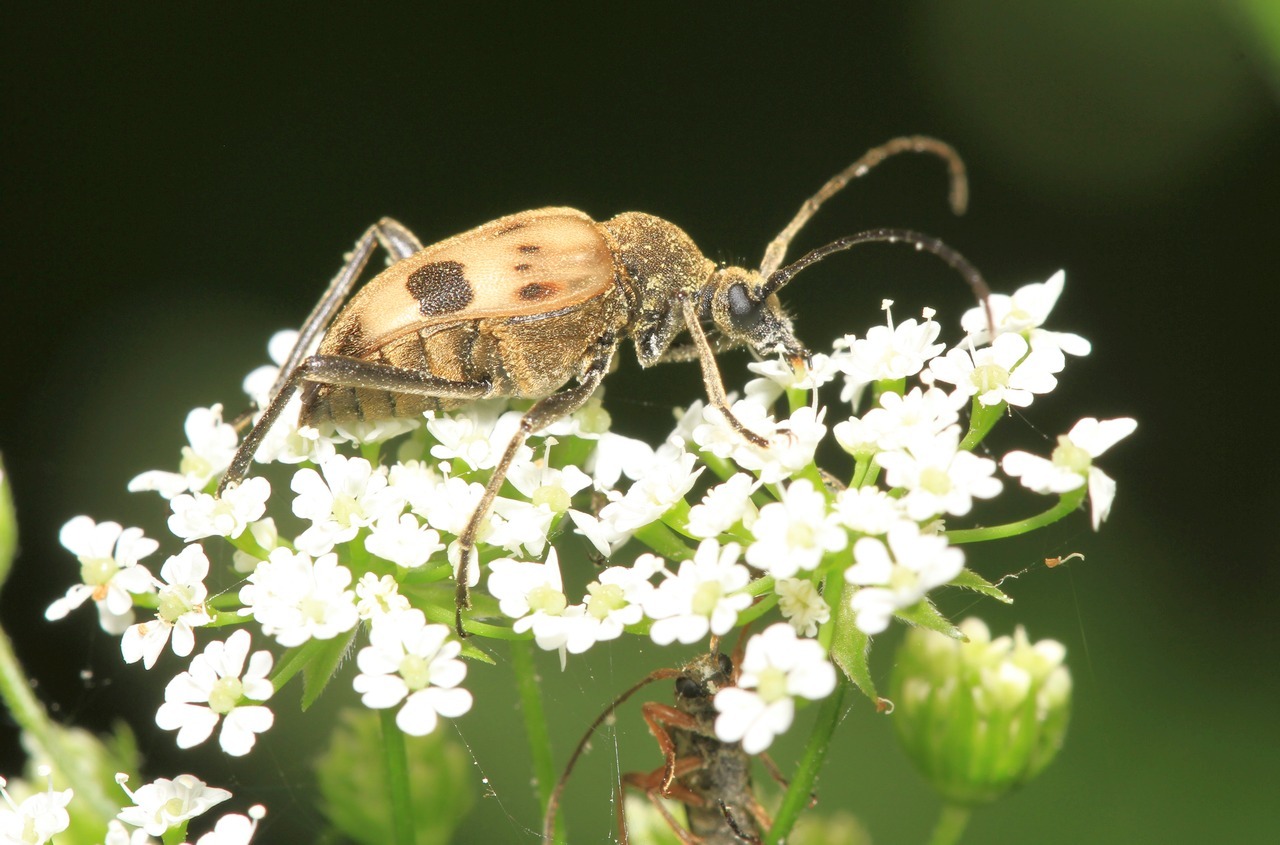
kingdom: Animalia
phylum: Arthropoda
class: Insecta
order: Coleoptera
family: Cerambycidae
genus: Pachytodes
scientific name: Pachytodes cerambyciformis
